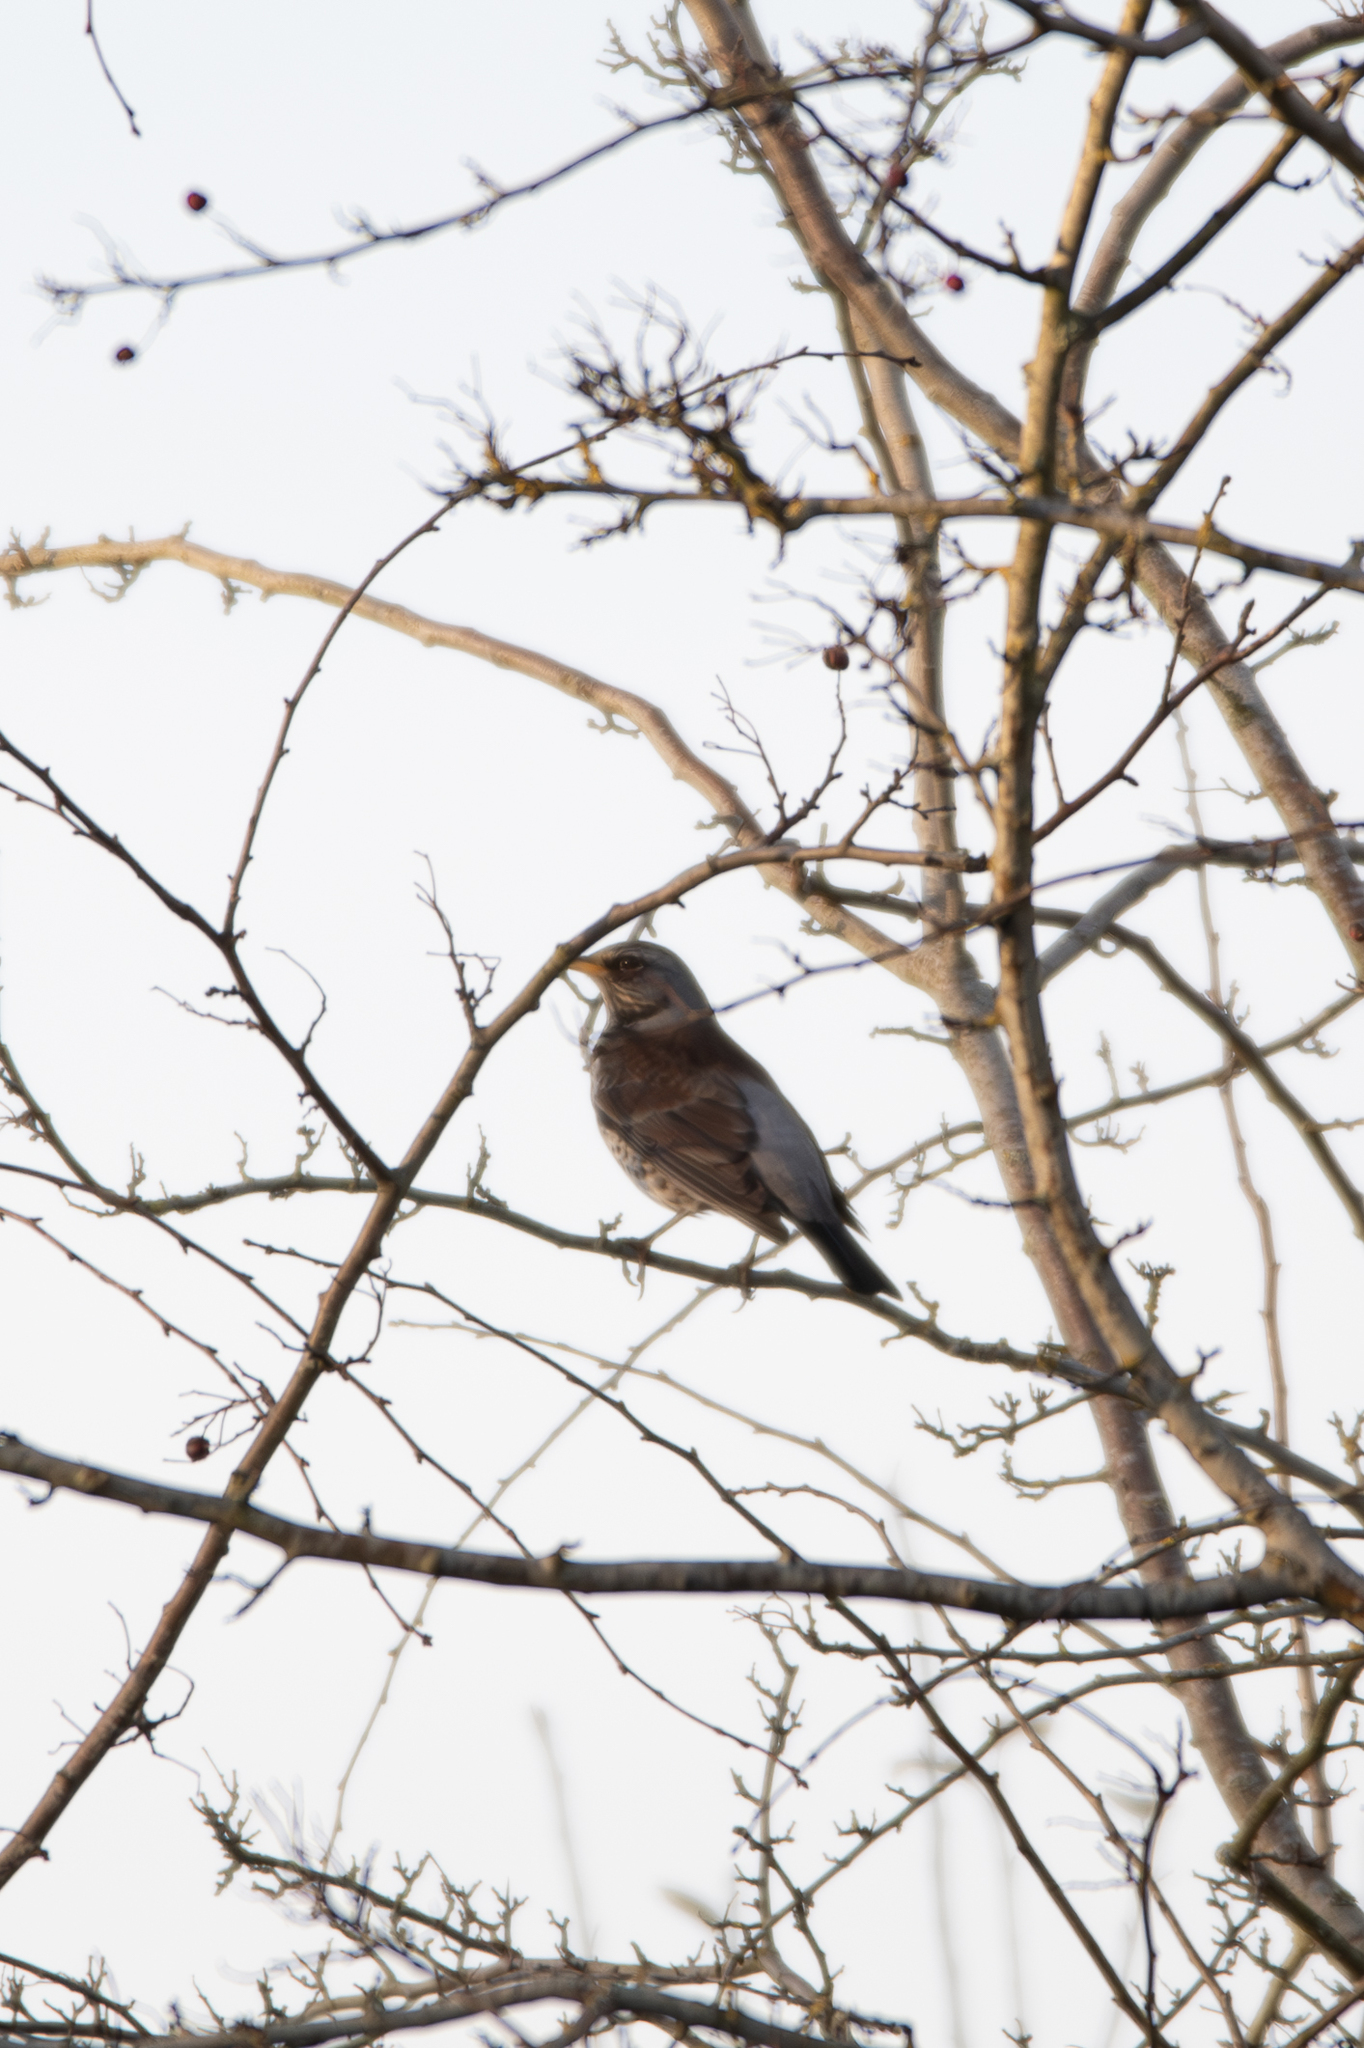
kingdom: Animalia
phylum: Chordata
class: Aves
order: Passeriformes
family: Turdidae
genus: Turdus
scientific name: Turdus pilaris
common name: Fieldfare
